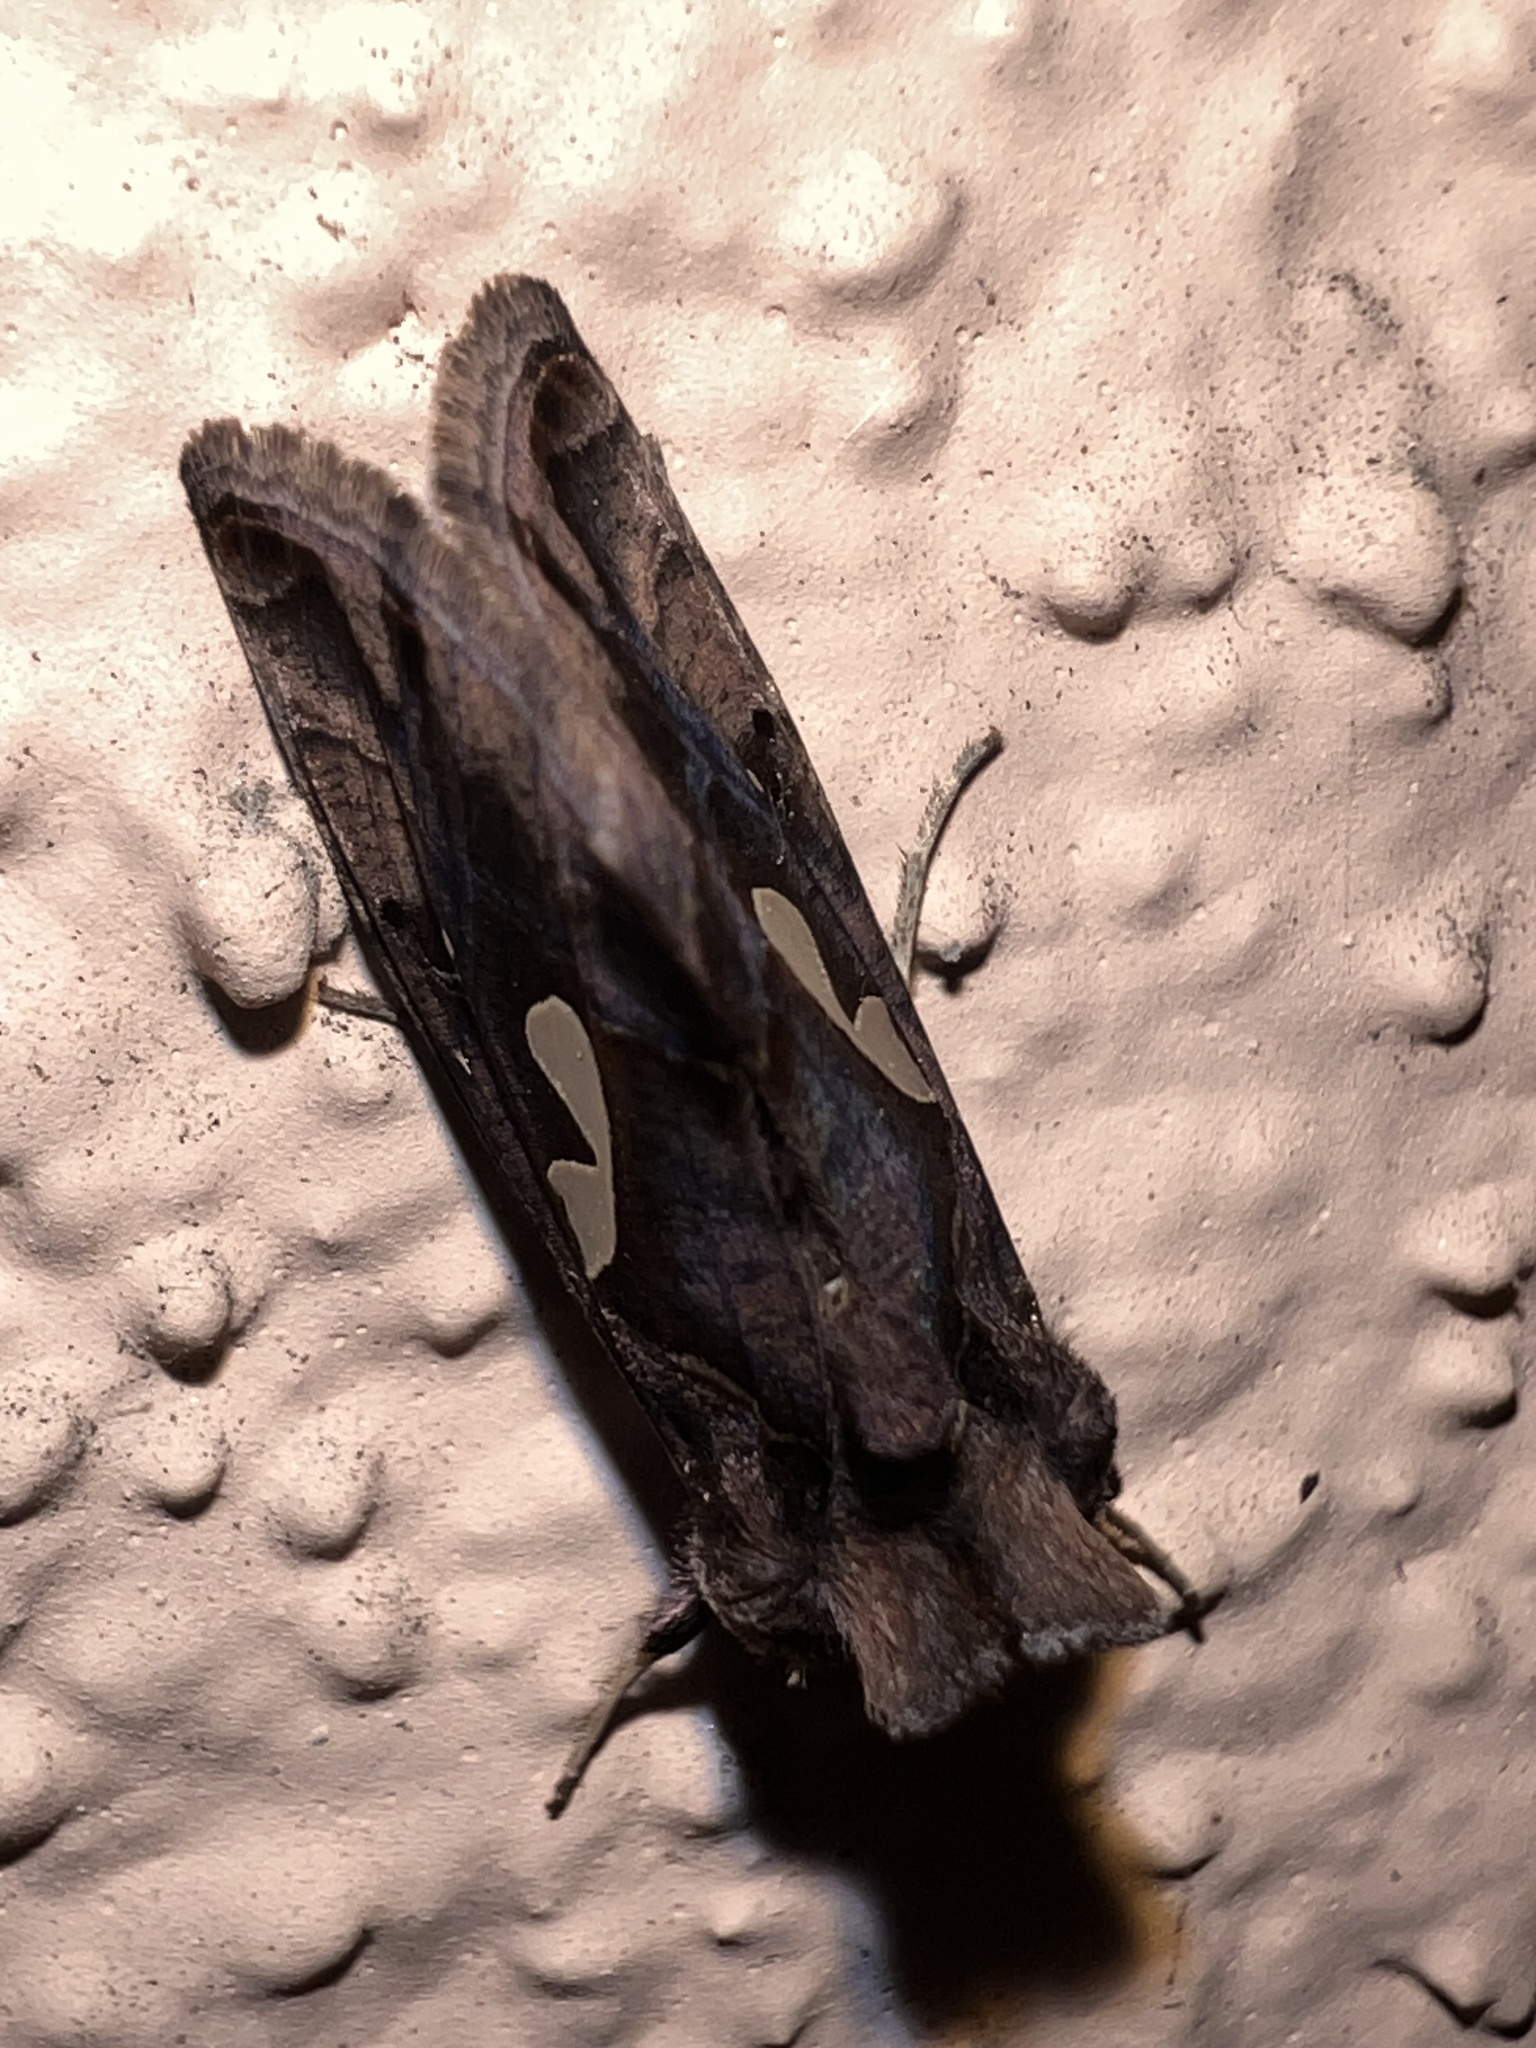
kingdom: Animalia
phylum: Arthropoda
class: Insecta
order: Lepidoptera
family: Noctuidae
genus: Megalographa
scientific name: Megalographa biloba
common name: Cutworm
